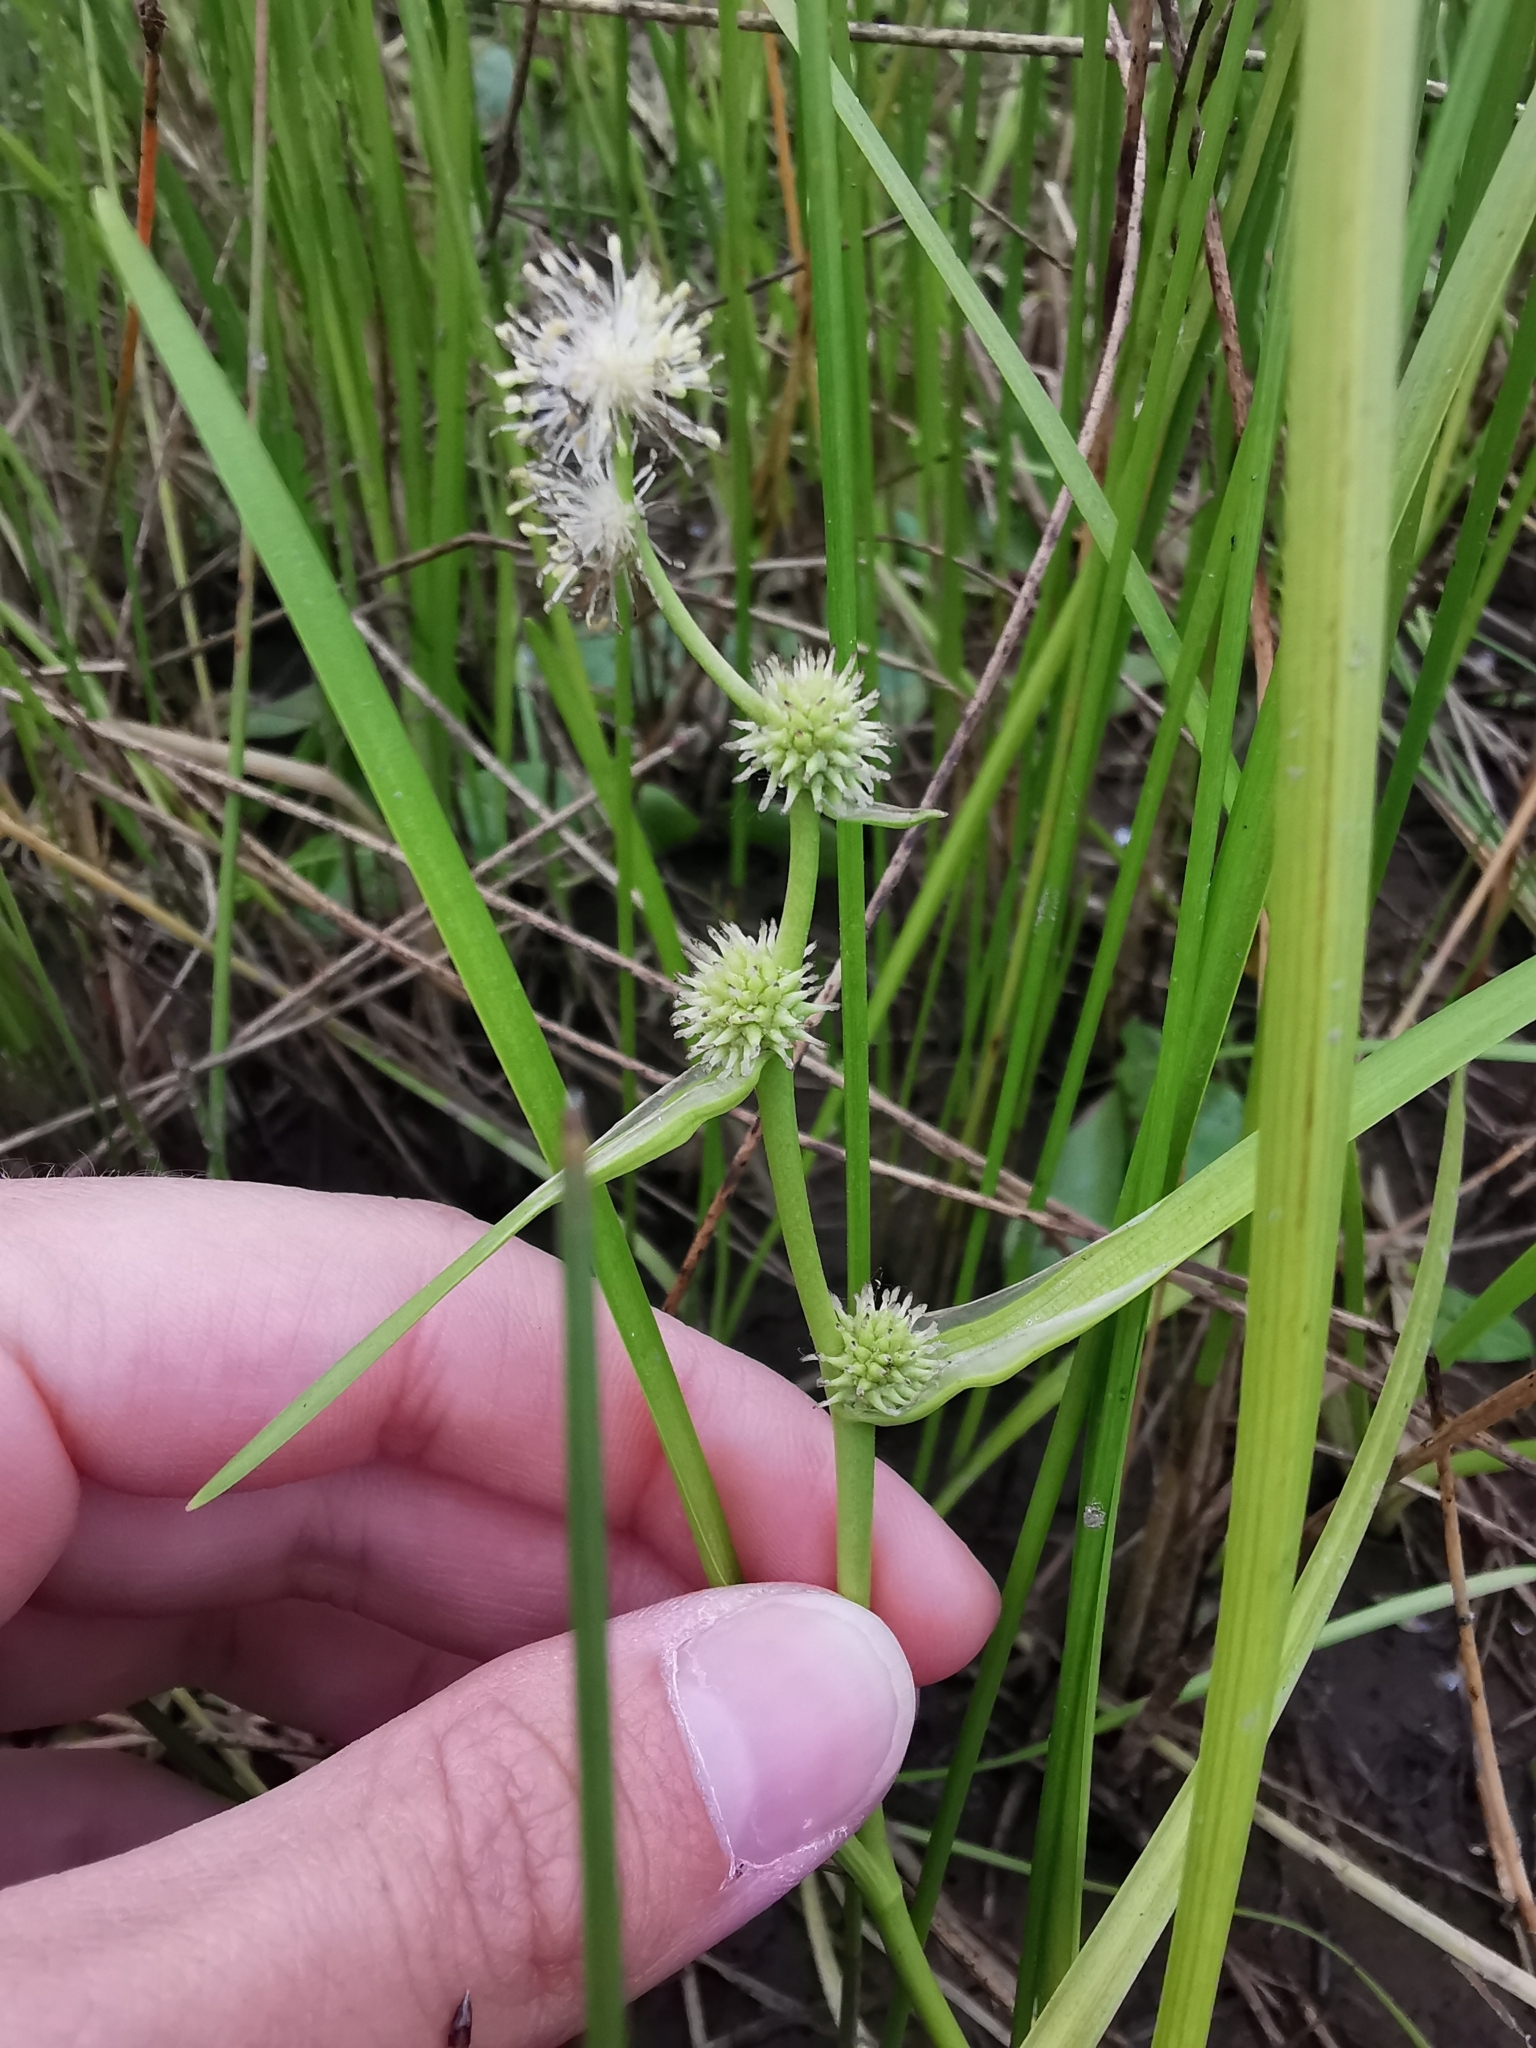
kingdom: Plantae
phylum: Tracheophyta
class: Liliopsida
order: Poales
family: Typhaceae
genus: Sparganium
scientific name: Sparganium angustifolium
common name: Floating bur-reed
